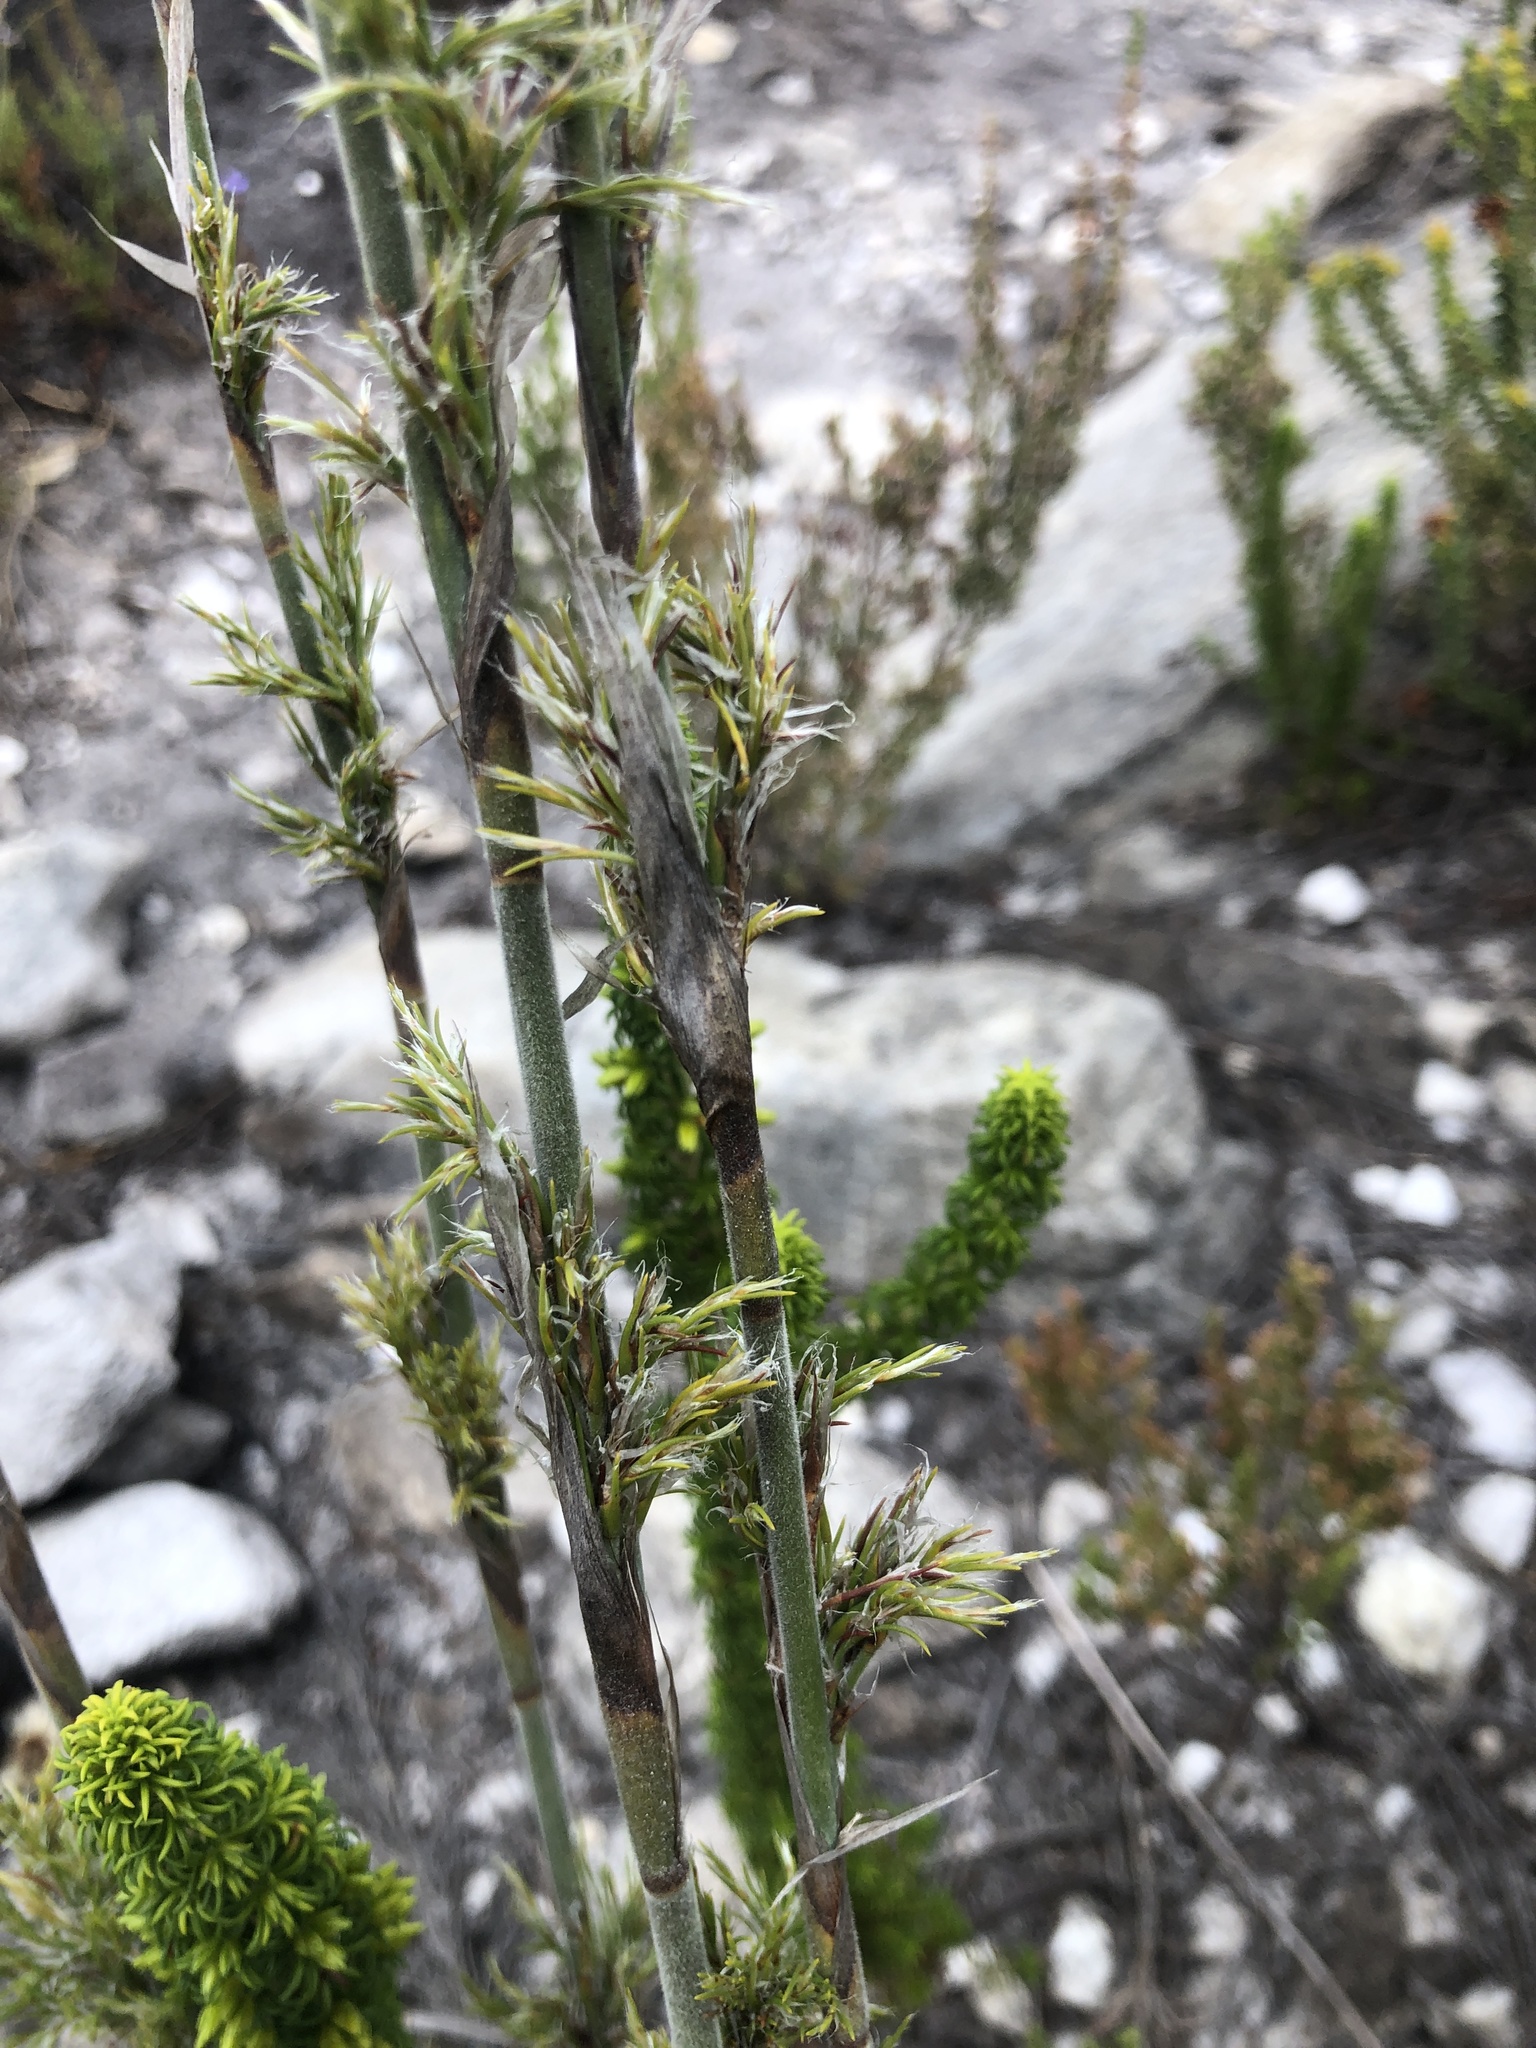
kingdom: Plantae
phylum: Tracheophyta
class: Liliopsida
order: Poales
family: Restionaceae
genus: Thamnochortus
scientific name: Thamnochortus cinereus
